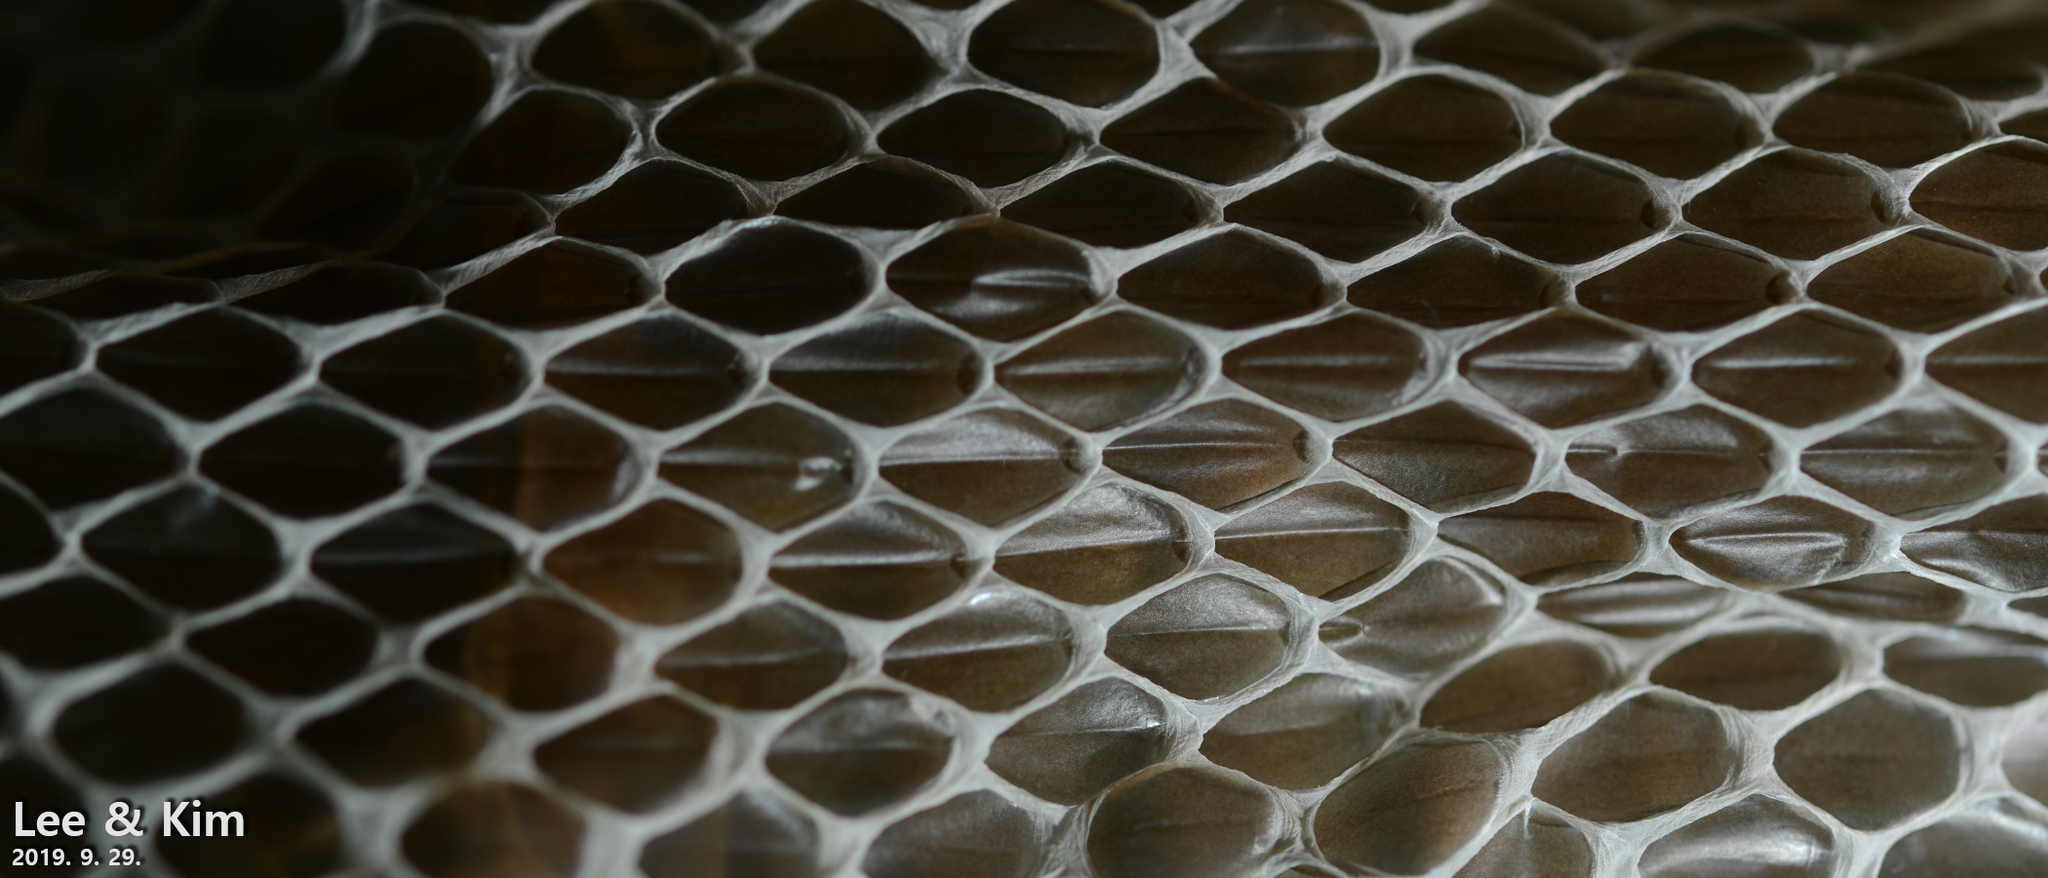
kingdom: Animalia
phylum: Chordata
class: Squamata
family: Colubridae
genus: Elaphe
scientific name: Elaphe schrenckii
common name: Amur rat snake
